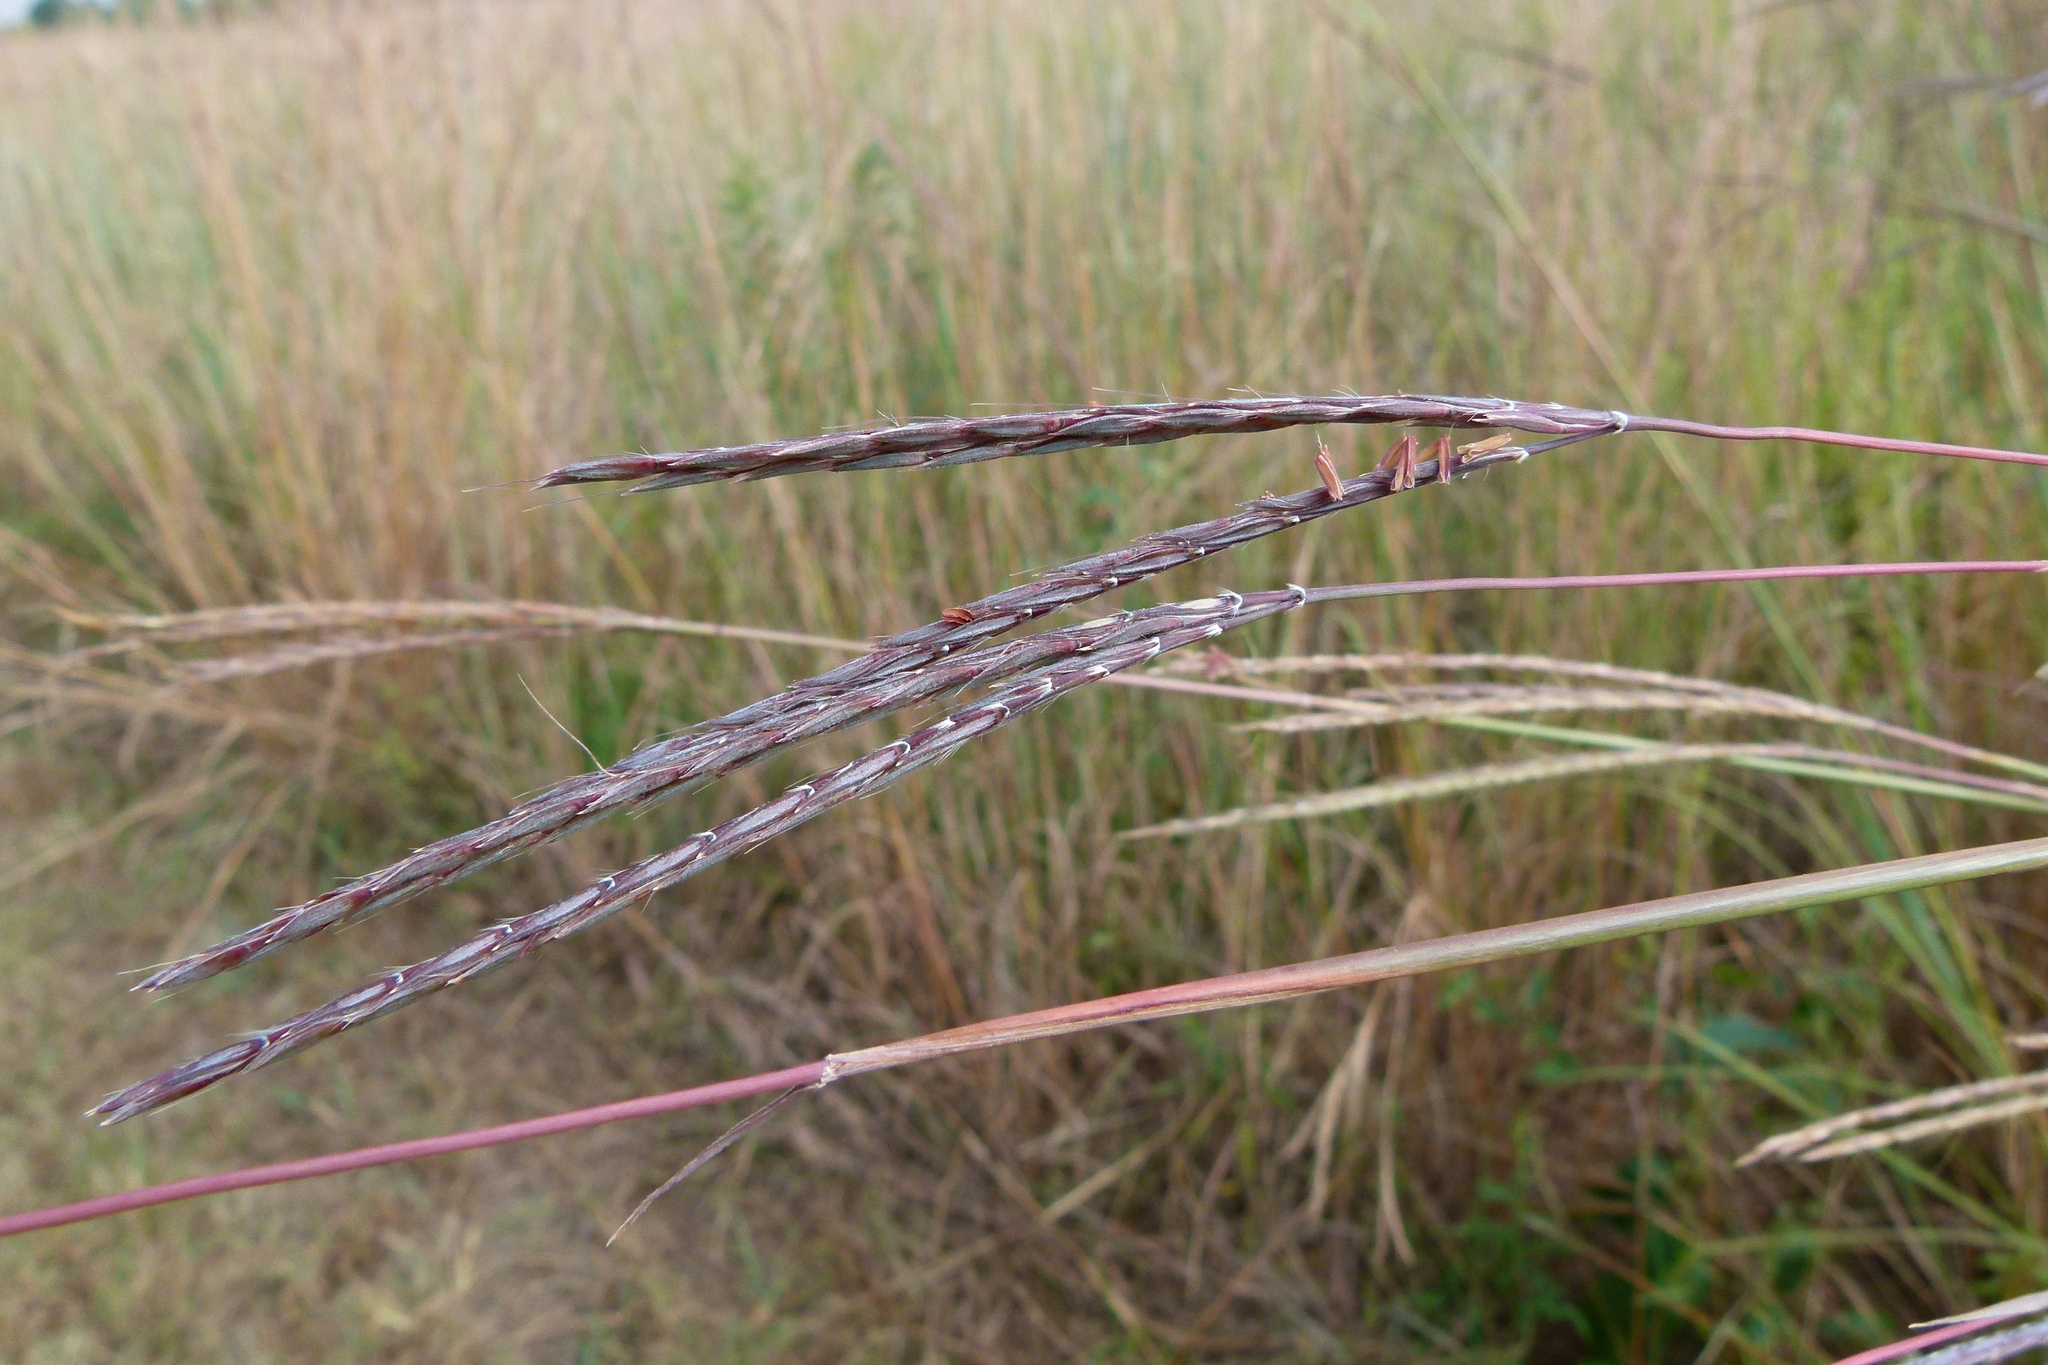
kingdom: Plantae
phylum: Tracheophyta
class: Liliopsida
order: Poales
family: Poaceae
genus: Andropogon
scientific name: Andropogon gerardi
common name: Big bluestem
